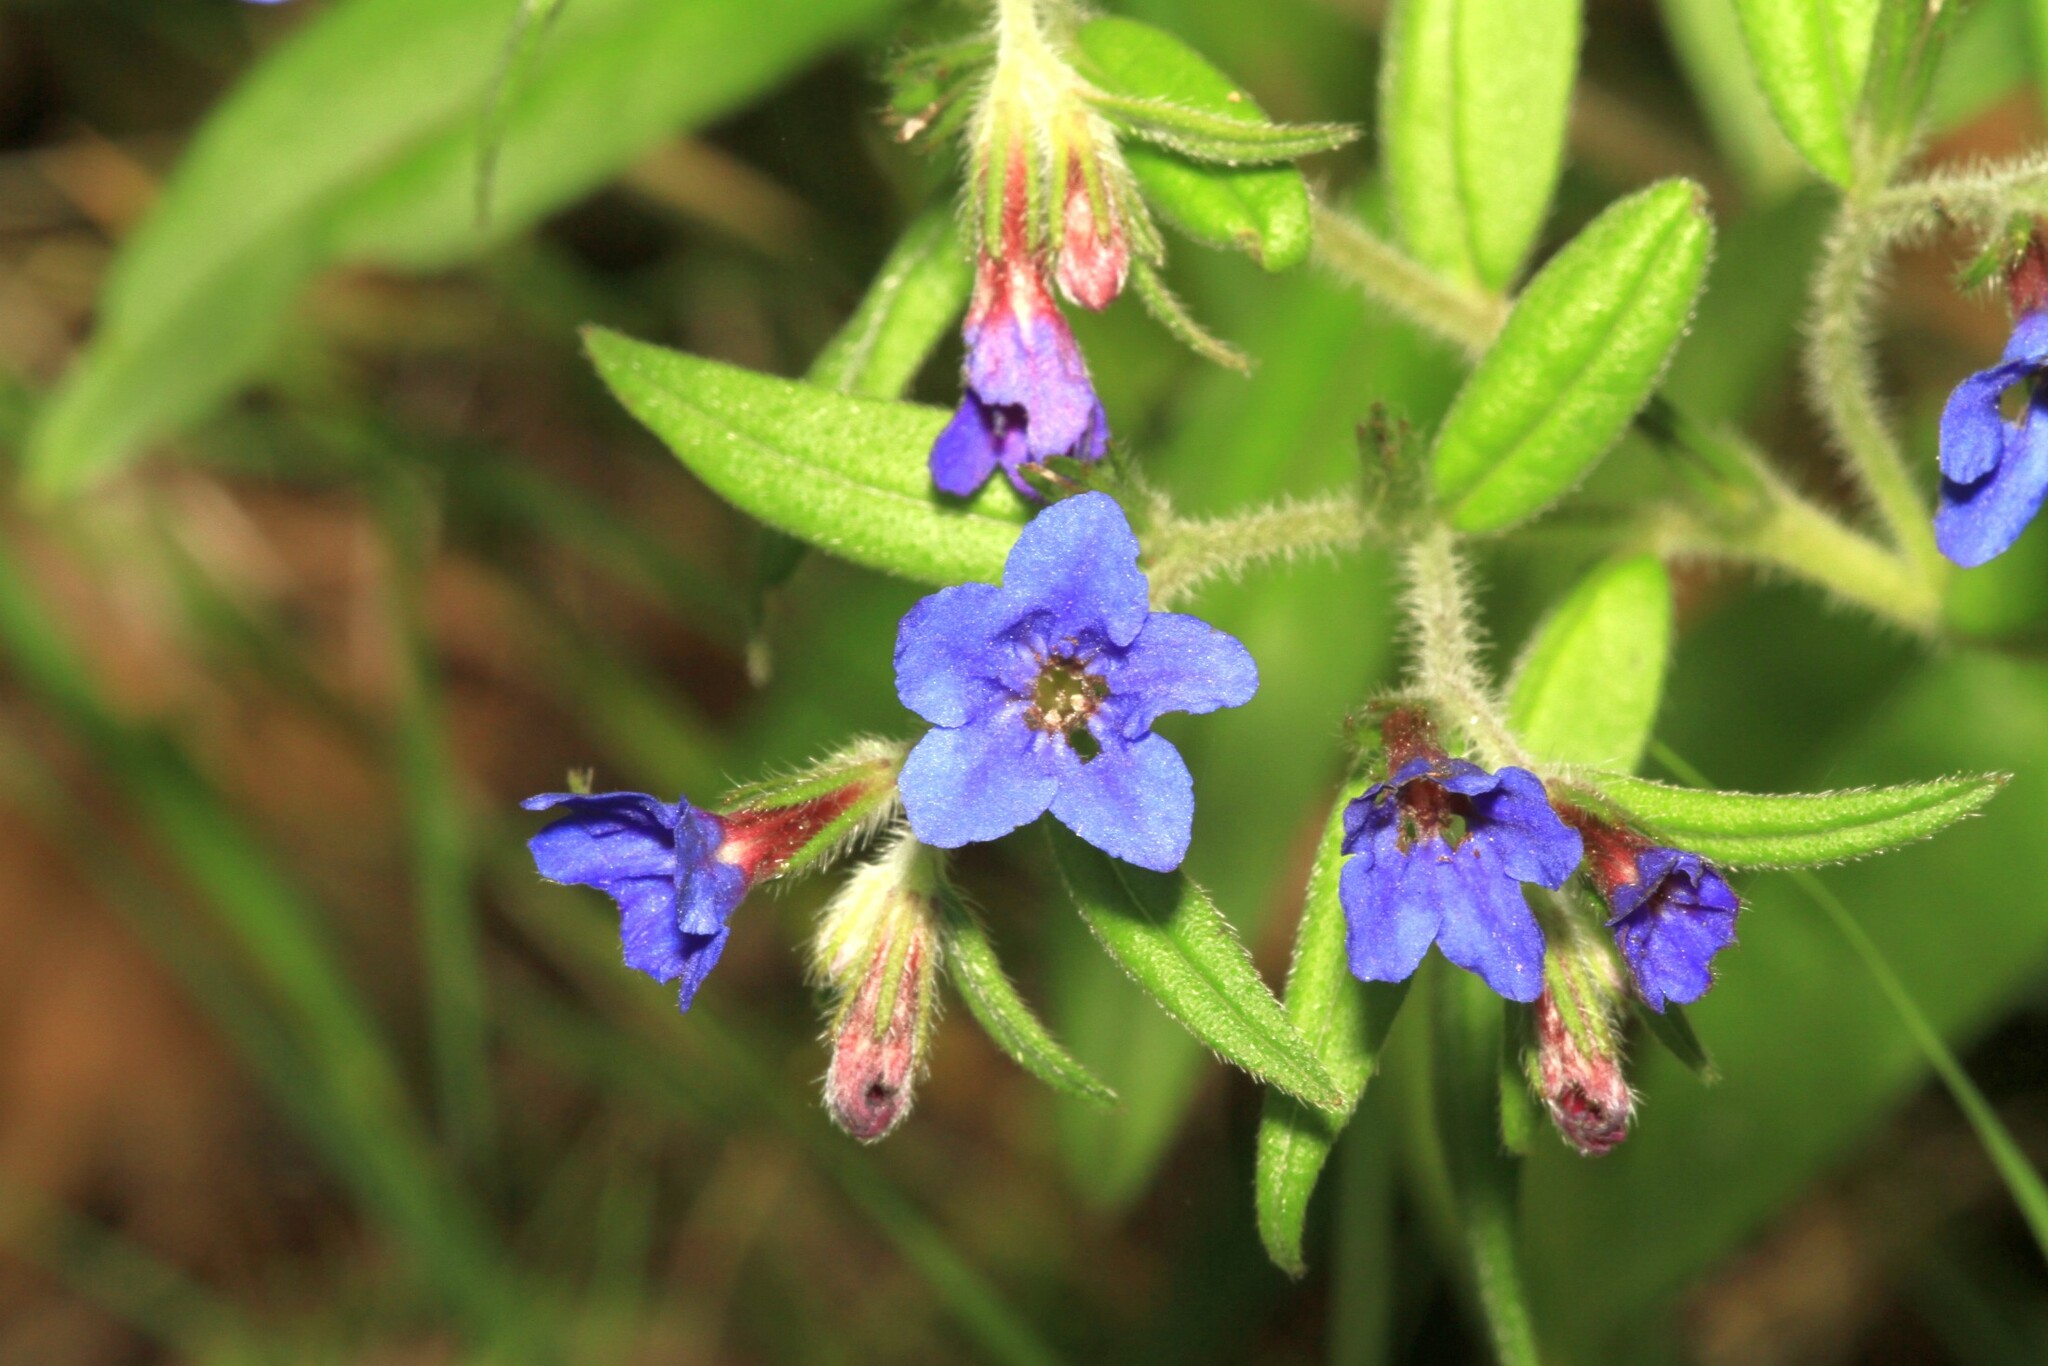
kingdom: Plantae
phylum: Tracheophyta
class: Magnoliopsida
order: Boraginales
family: Boraginaceae
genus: Aegonychon
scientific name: Aegonychon purpurocaeruleum
